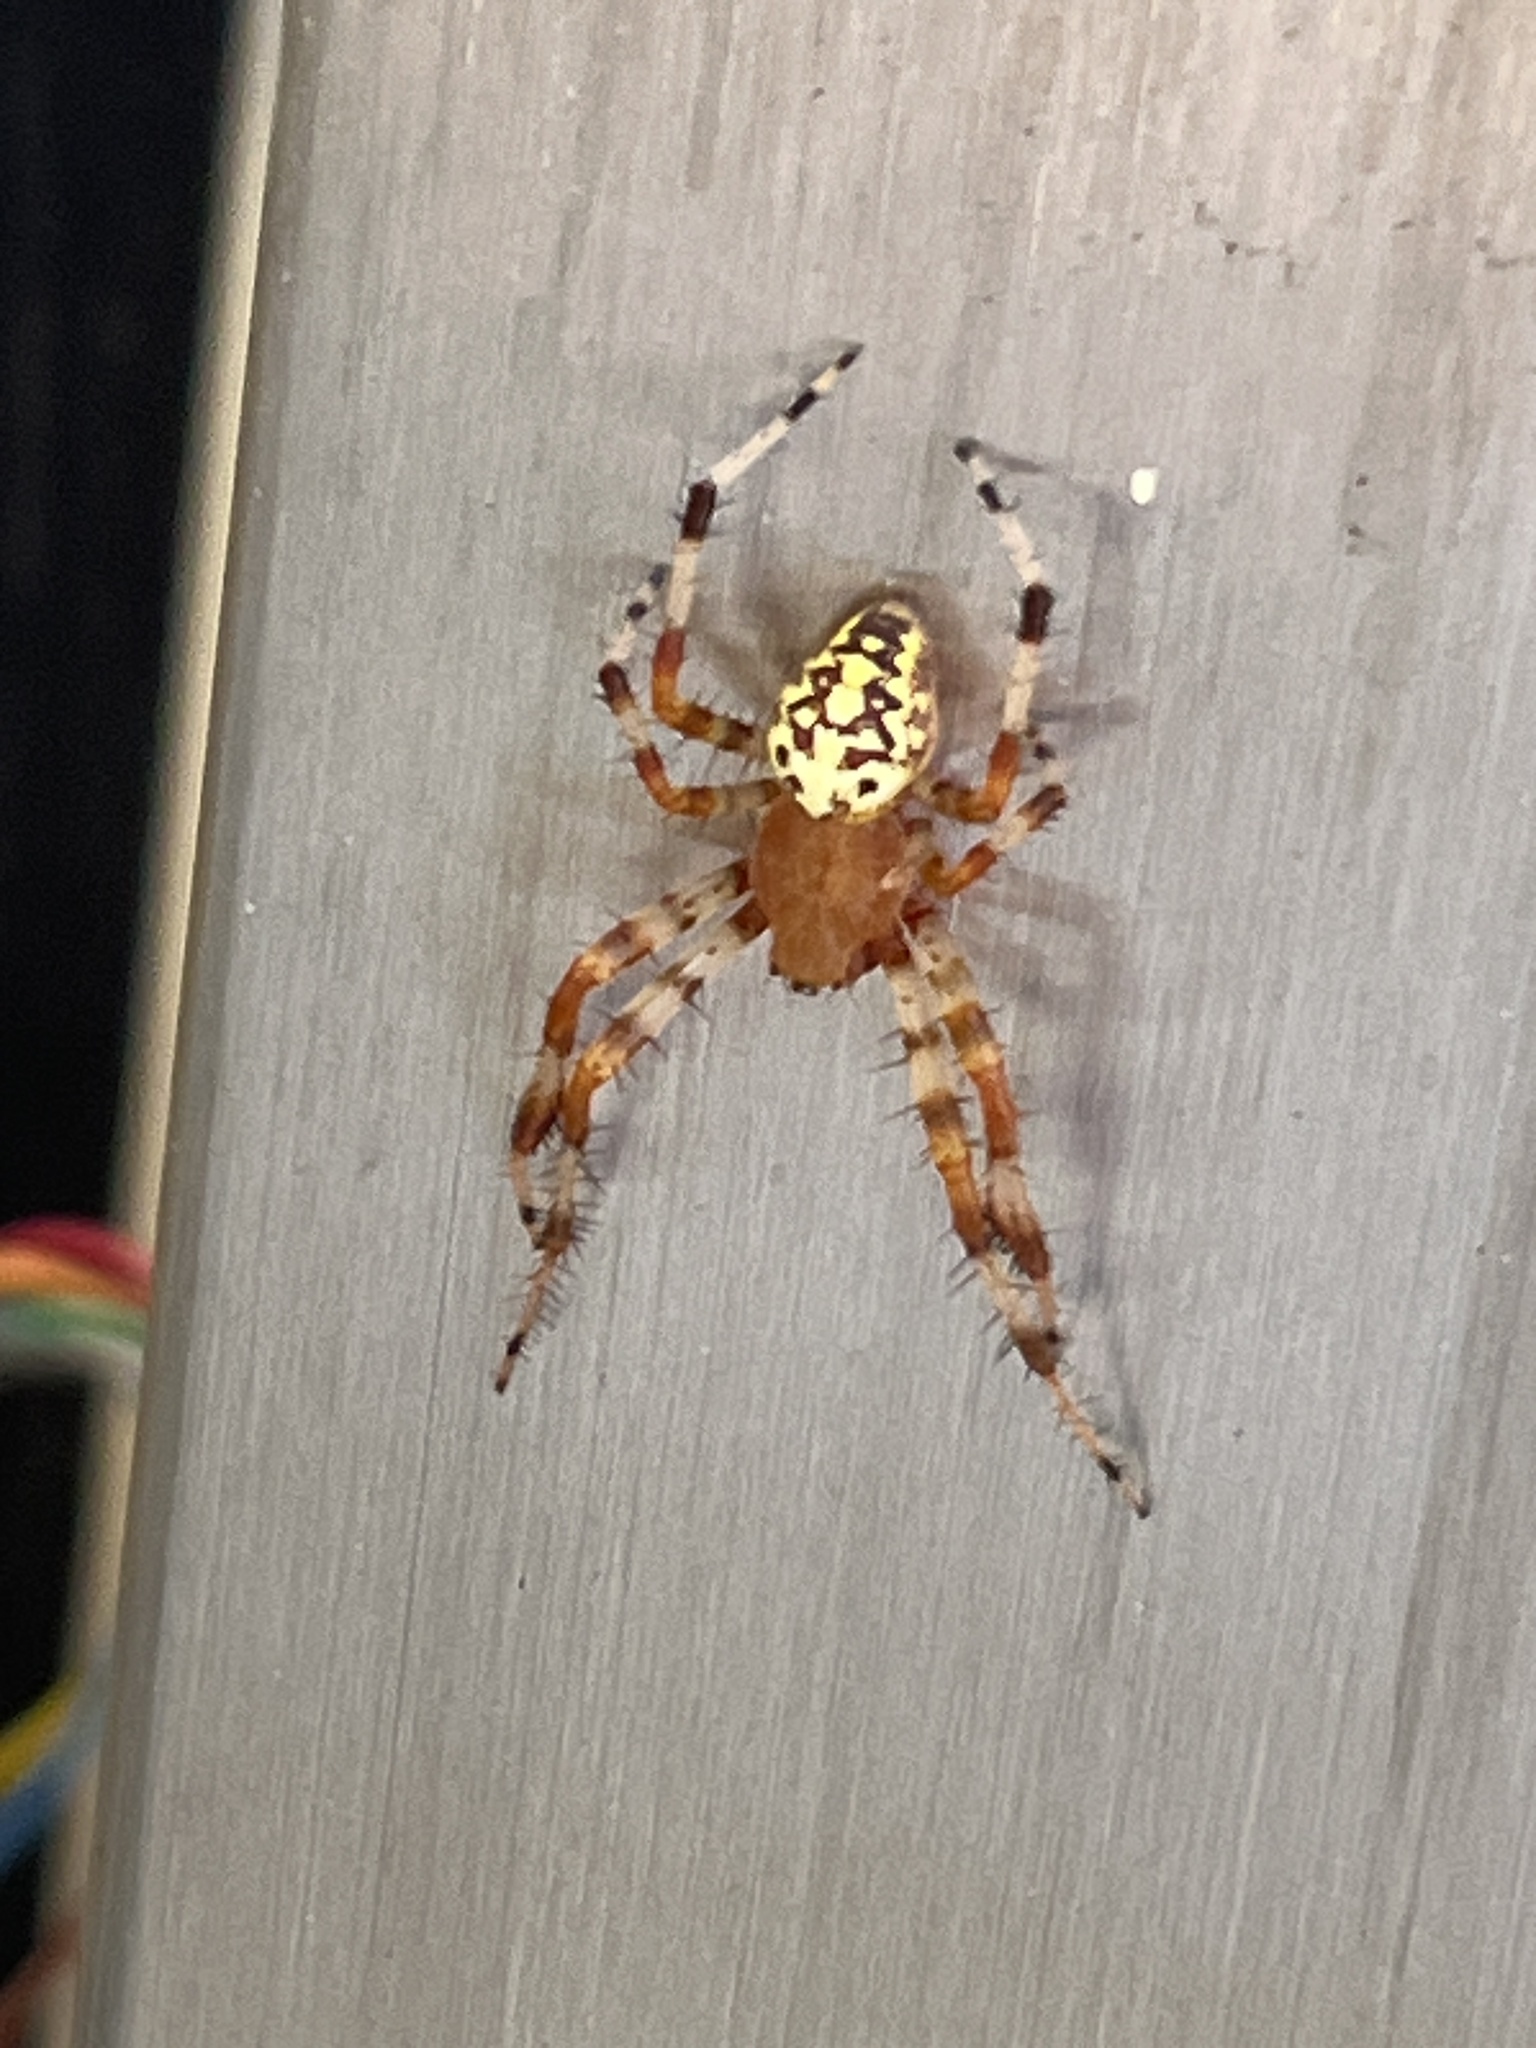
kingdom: Animalia
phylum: Arthropoda
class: Arachnida
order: Araneae
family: Araneidae
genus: Araneus
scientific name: Araneus marmoreus
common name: Marbled orbweaver
